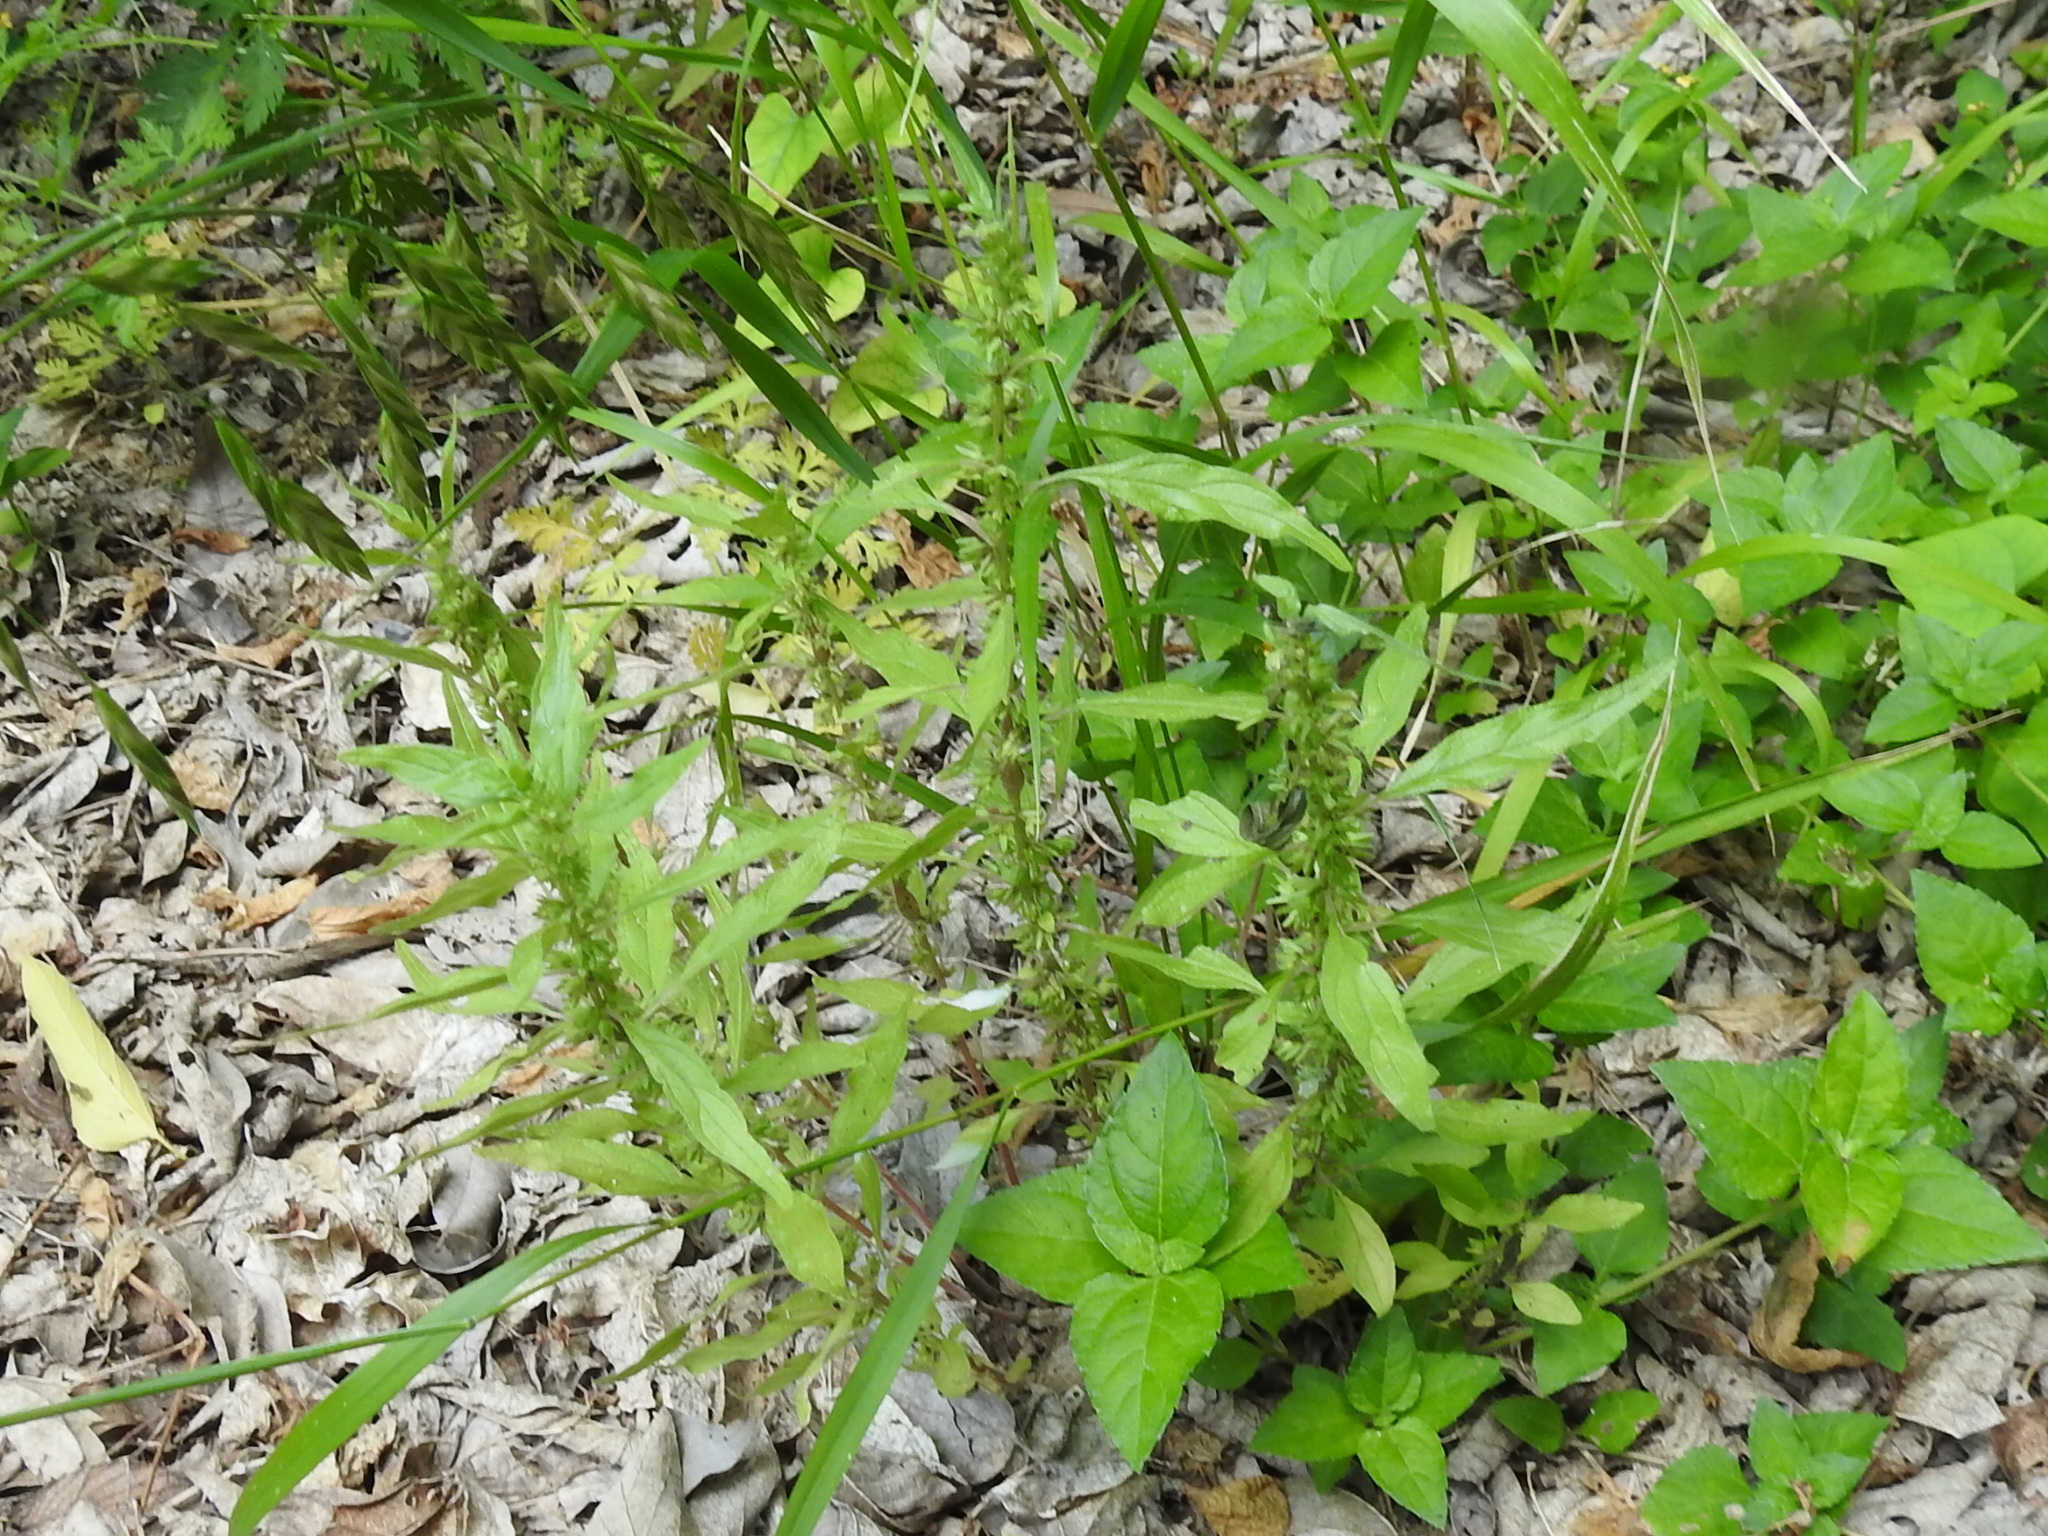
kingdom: Plantae
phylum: Tracheophyta
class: Magnoliopsida
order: Rosales
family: Urticaceae
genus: Parietaria
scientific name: Parietaria pensylvanica
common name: Pennsylvania pellitory
